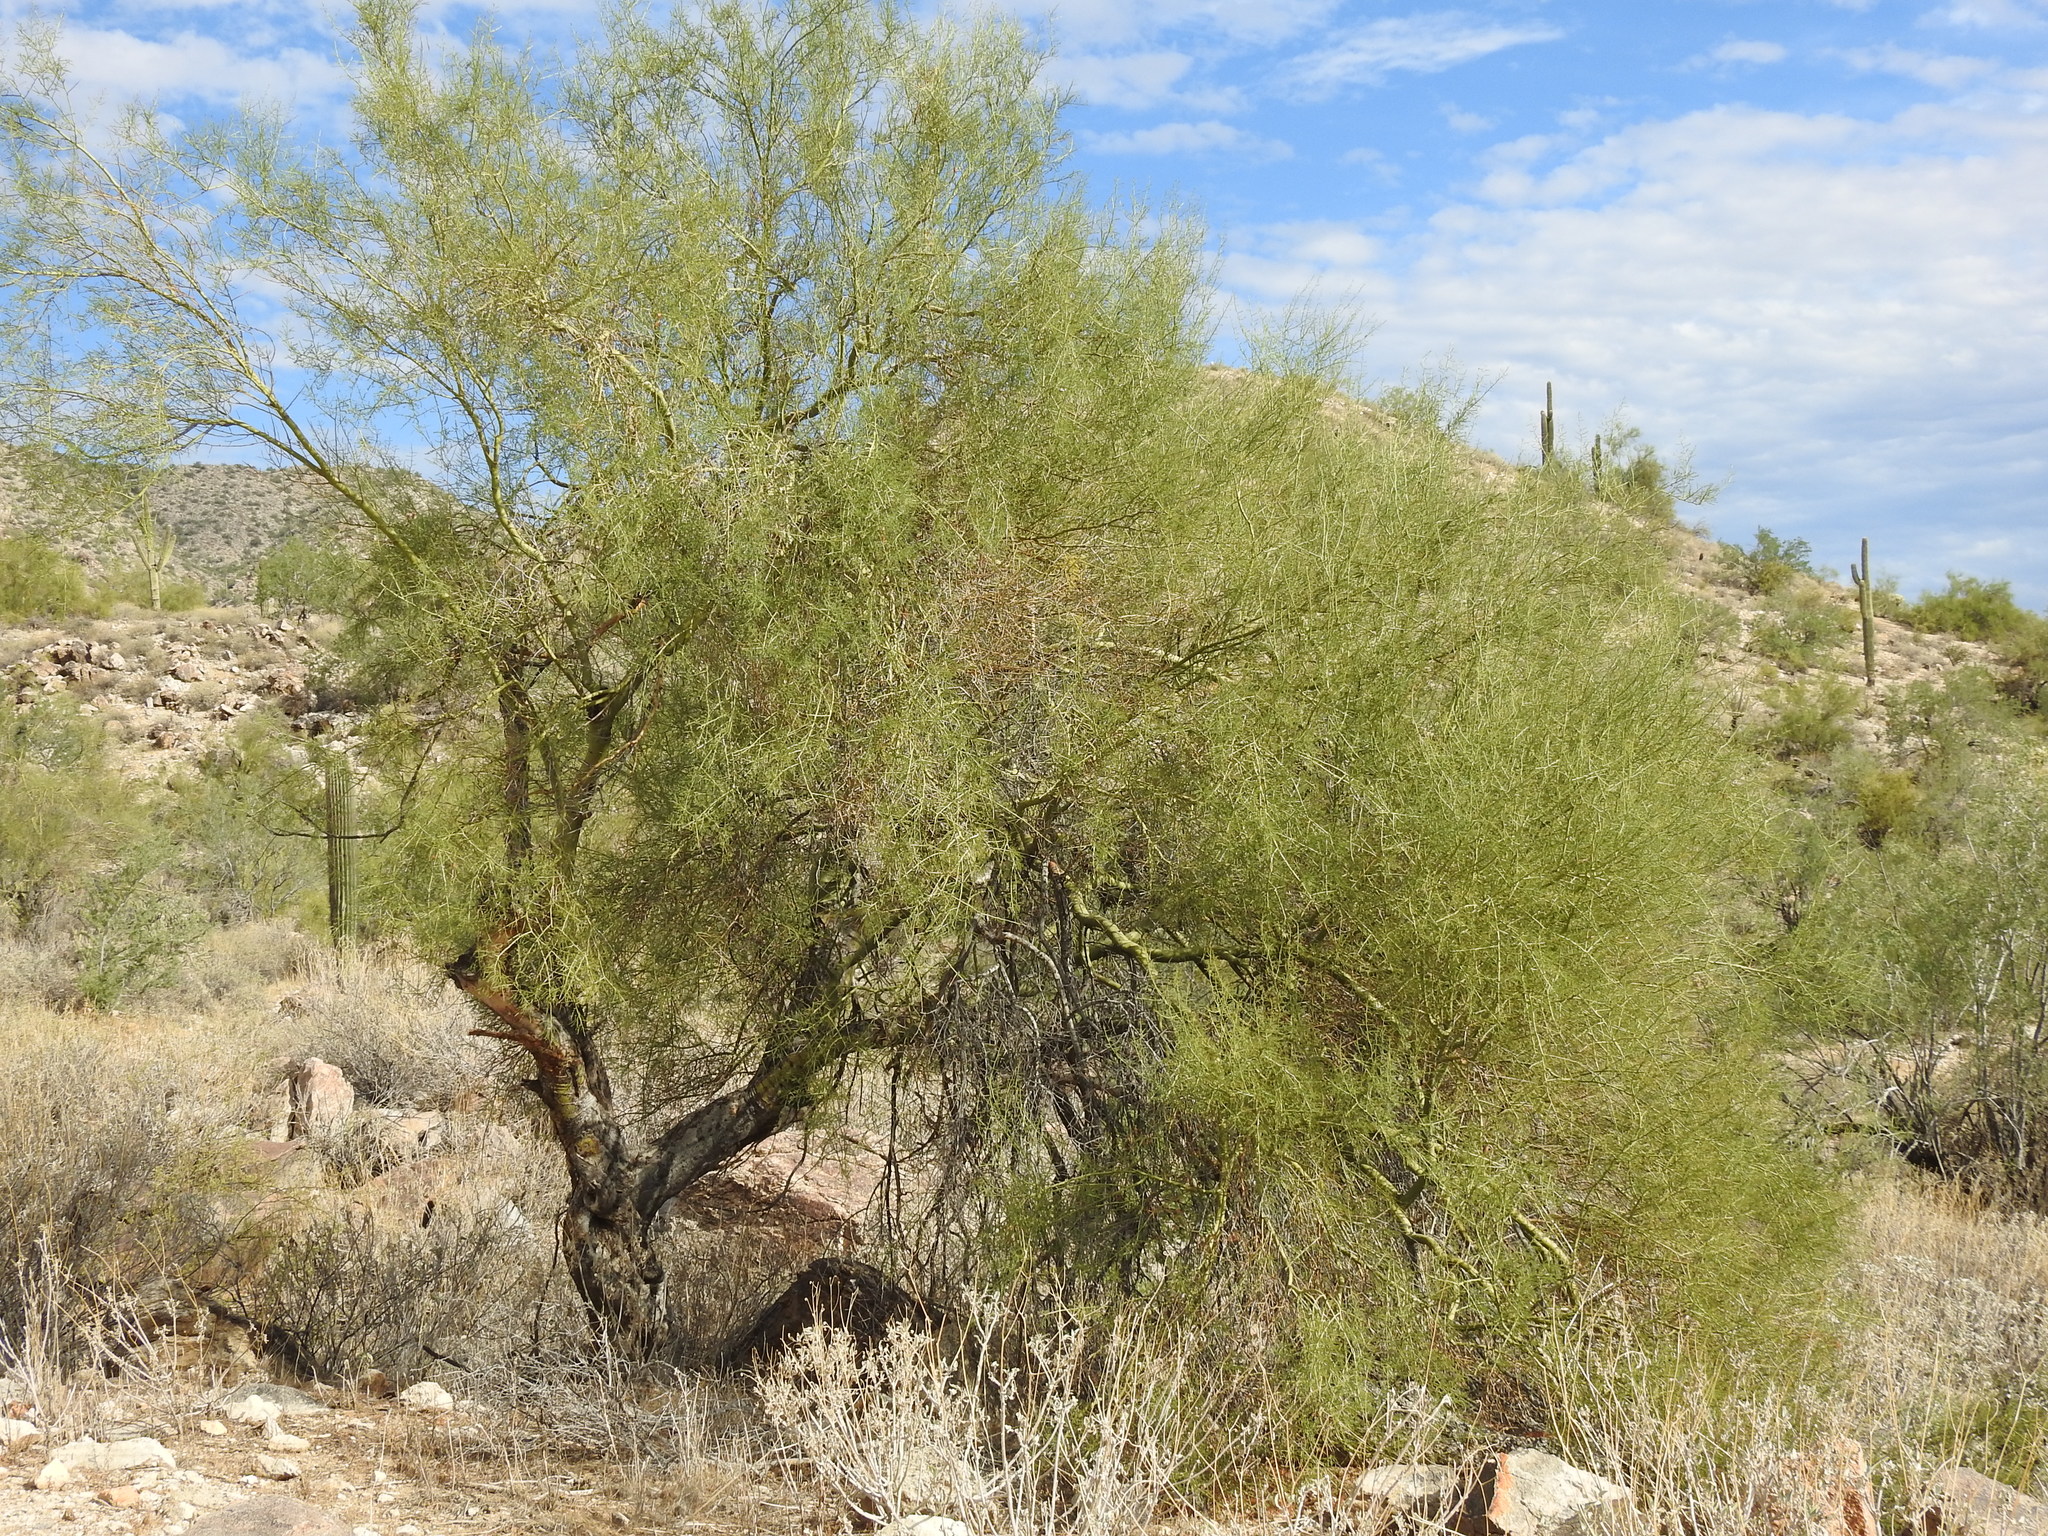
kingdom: Plantae
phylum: Tracheophyta
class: Magnoliopsida
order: Fabales
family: Fabaceae
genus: Parkinsonia
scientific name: Parkinsonia microphylla
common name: Yellow paloverde
